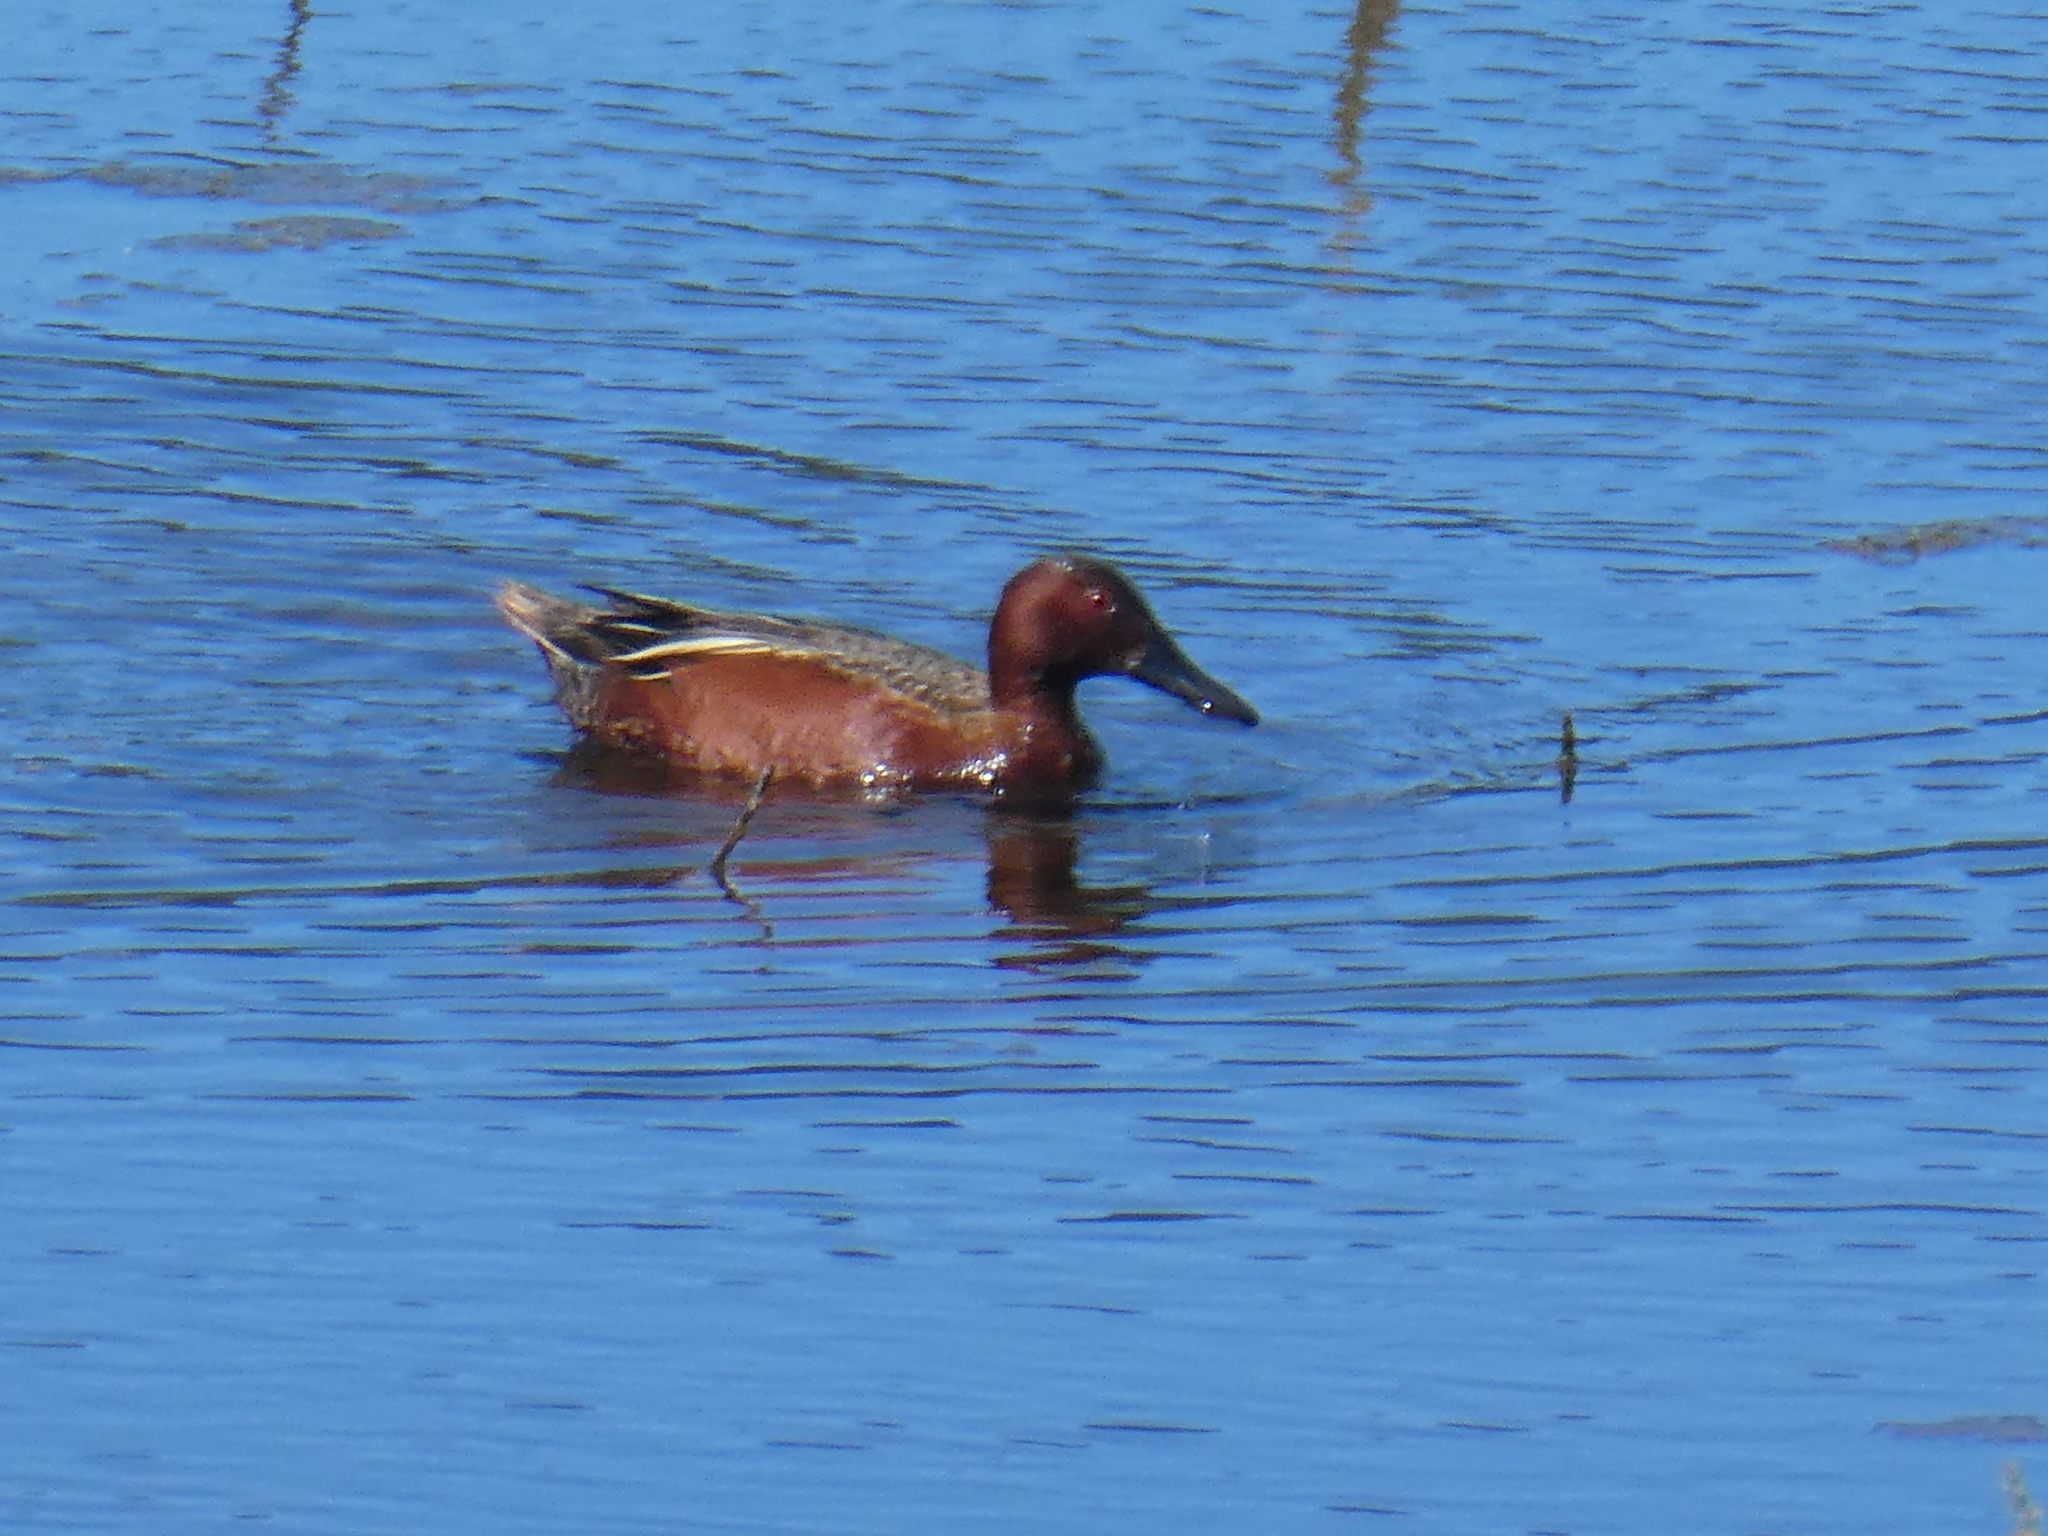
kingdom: Animalia
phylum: Chordata
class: Aves
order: Anseriformes
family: Anatidae
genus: Spatula
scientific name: Spatula cyanoptera
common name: Cinnamon teal
